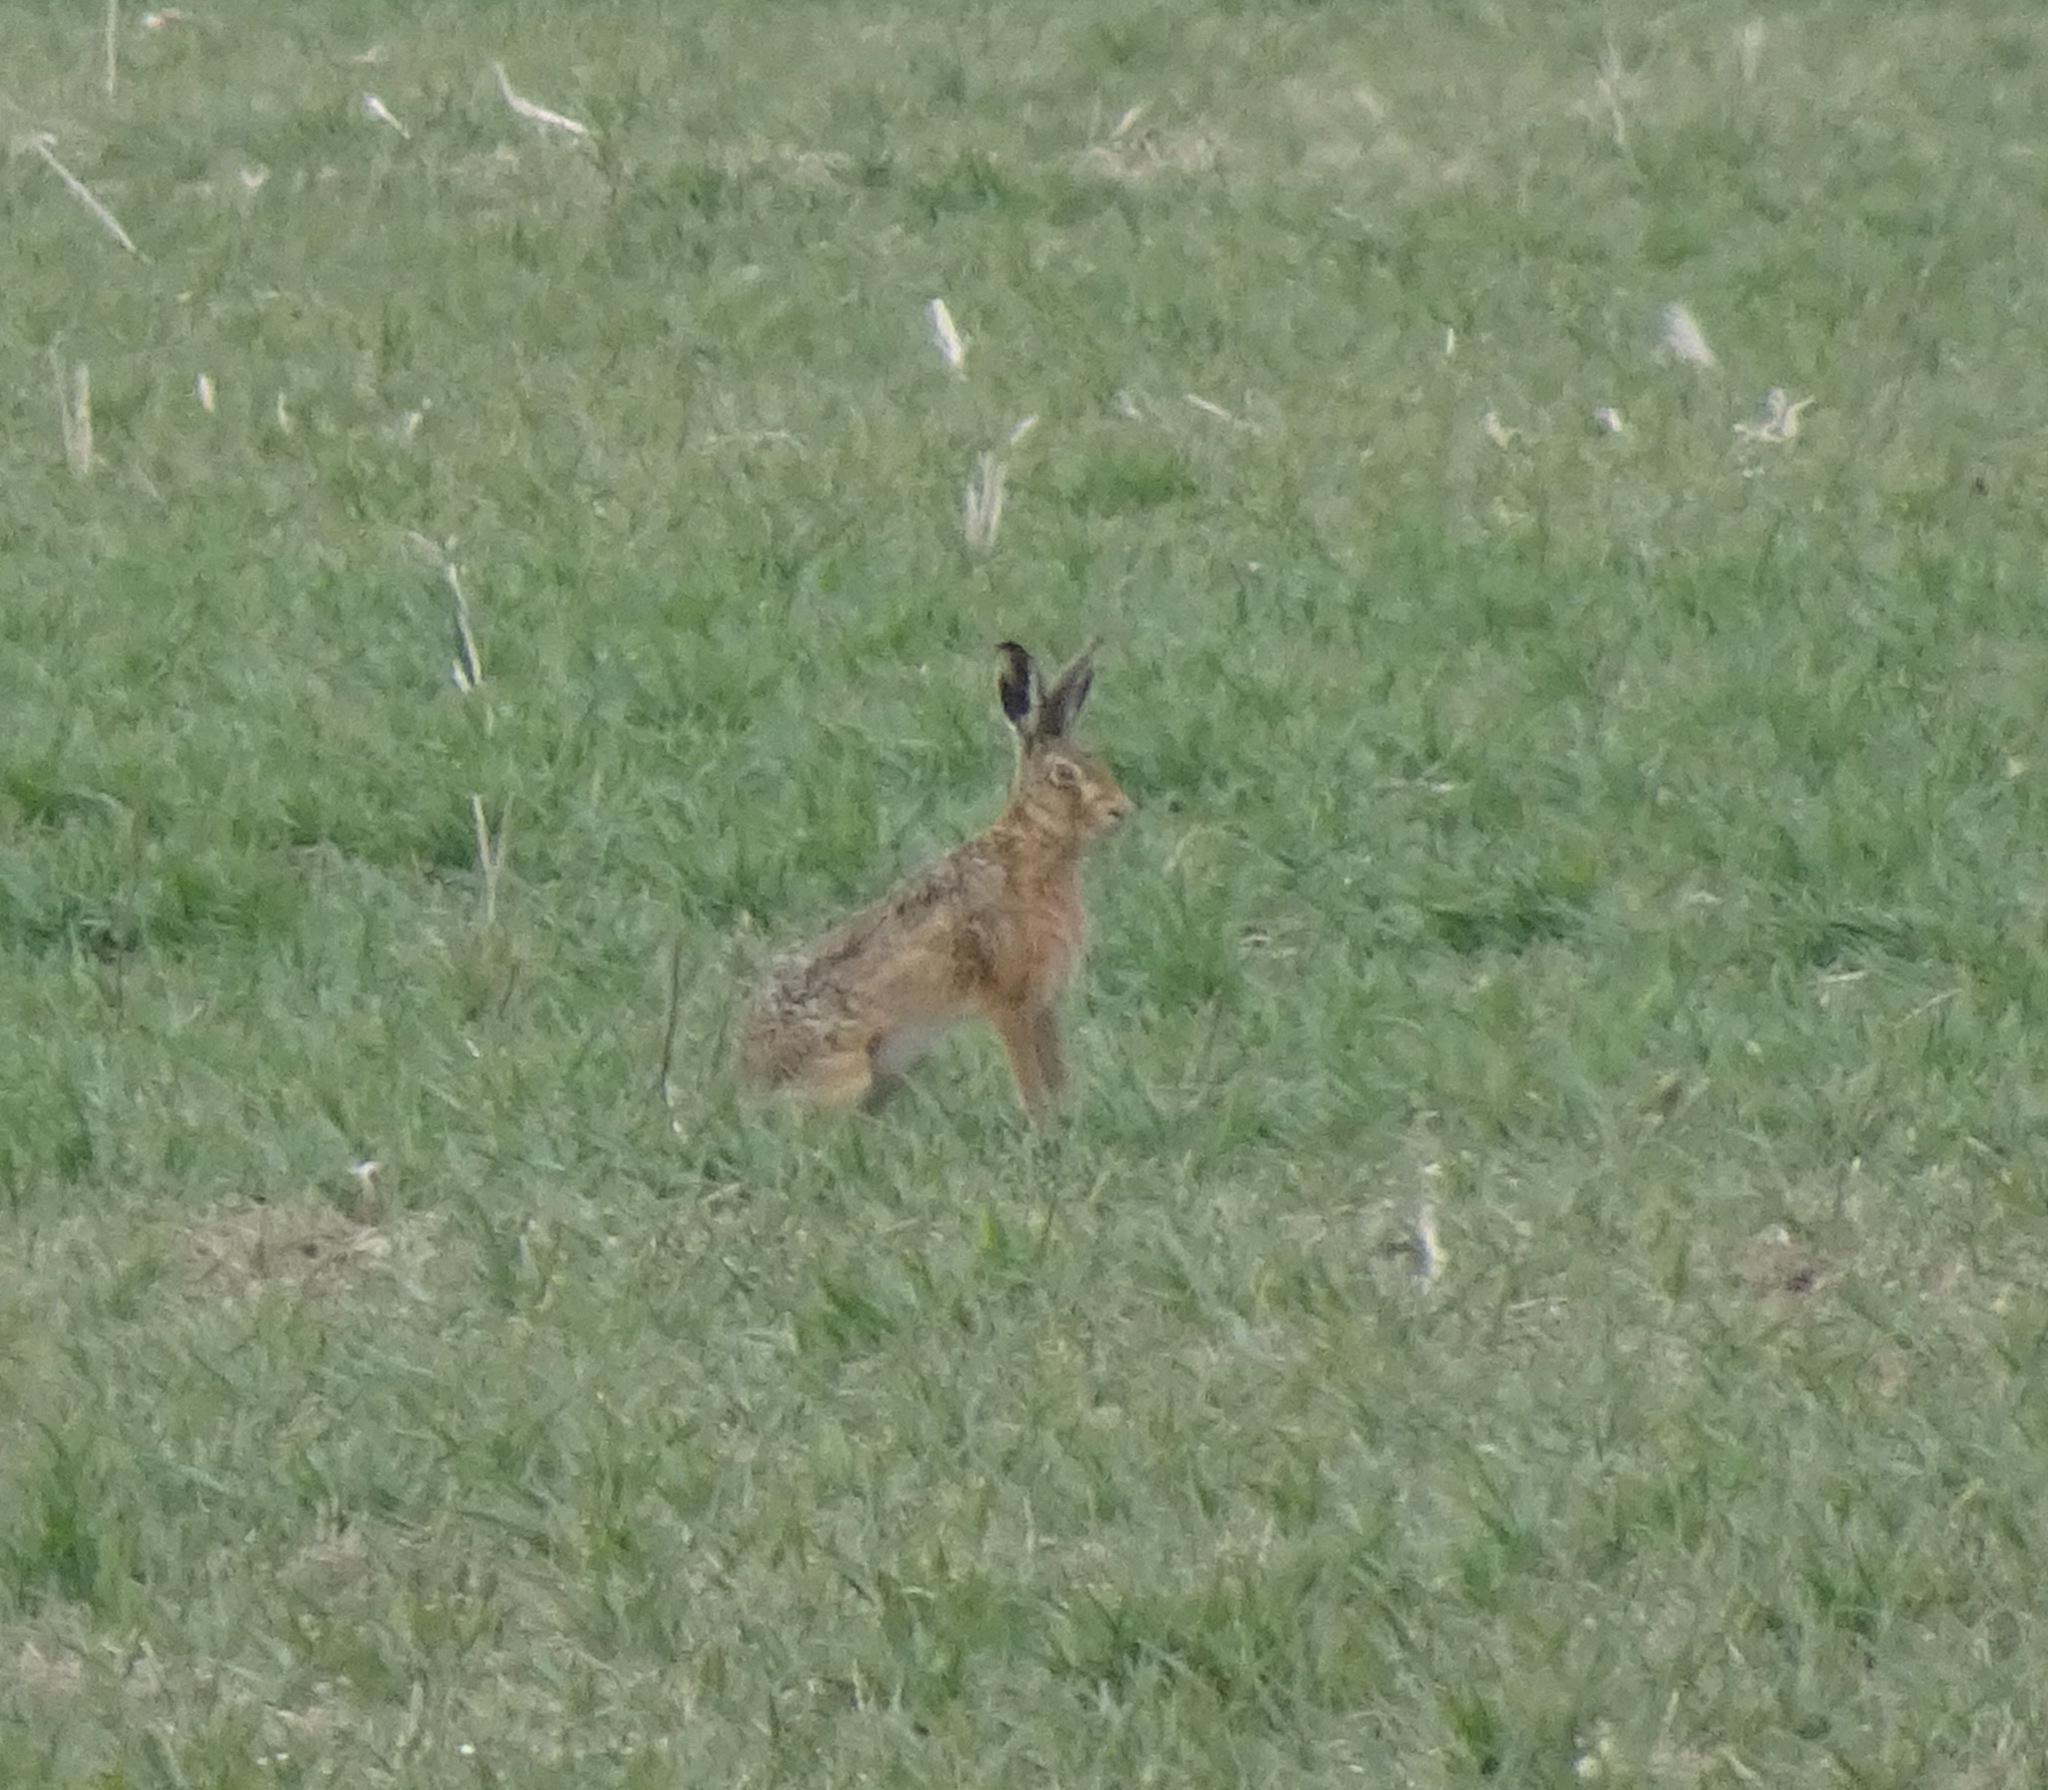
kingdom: Animalia
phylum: Chordata
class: Mammalia
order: Lagomorpha
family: Leporidae
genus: Lepus
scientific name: Lepus europaeus
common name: European hare
